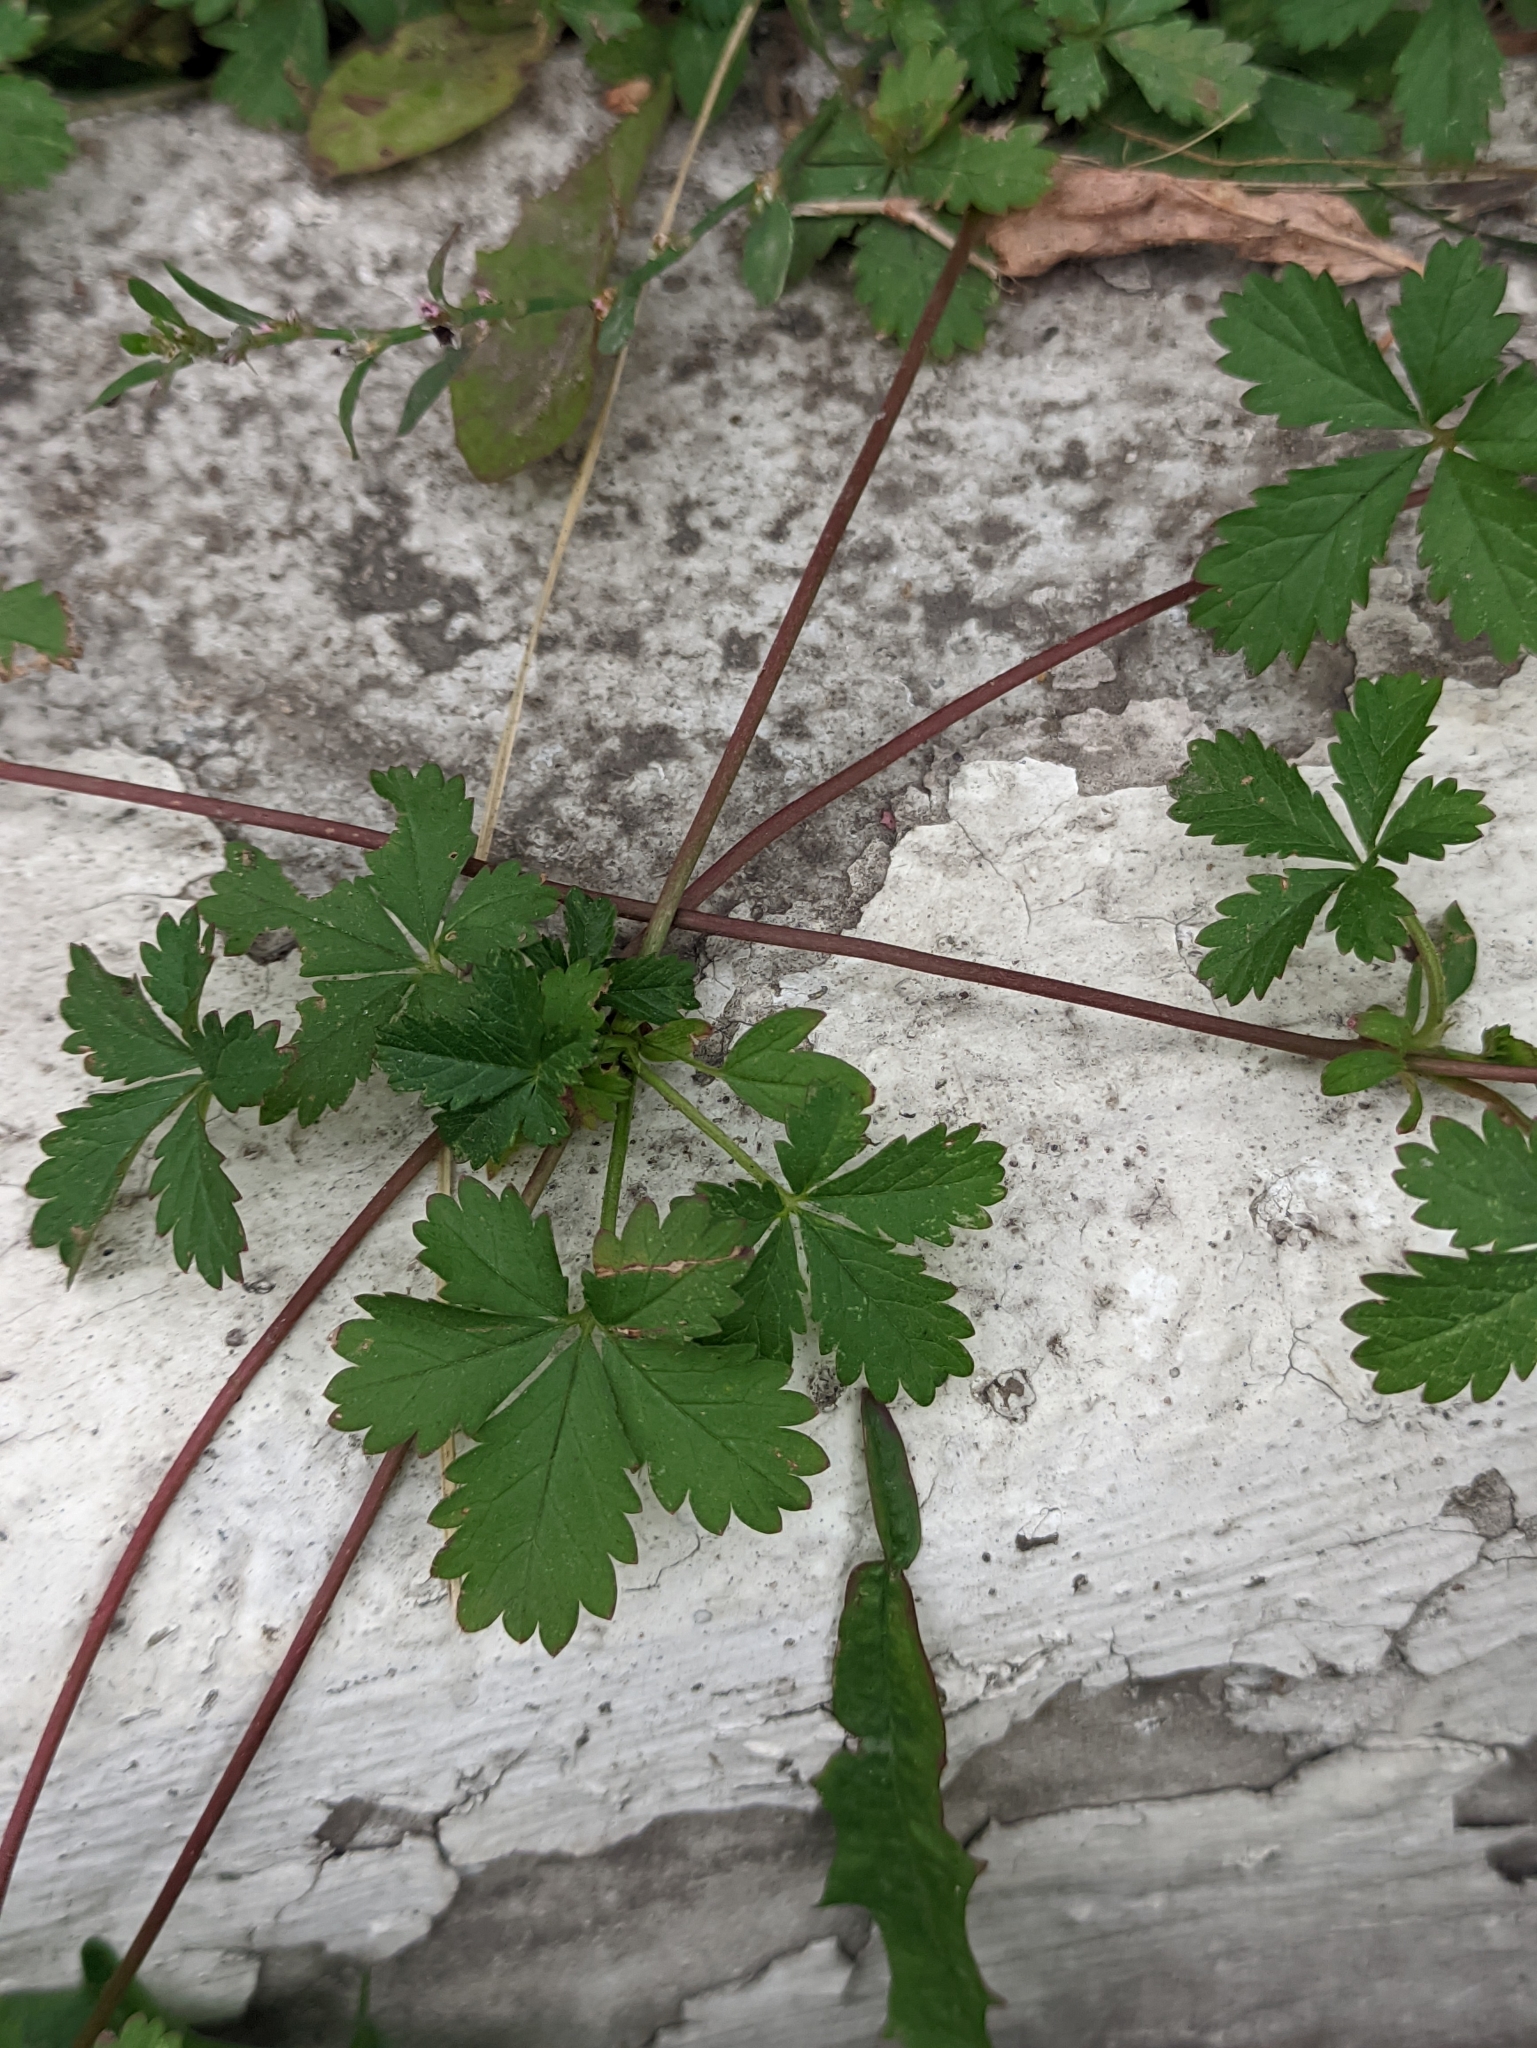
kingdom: Plantae
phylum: Tracheophyta
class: Magnoliopsida
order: Rosales
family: Rosaceae
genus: Potentilla
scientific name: Potentilla reptans
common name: Creeping cinquefoil
